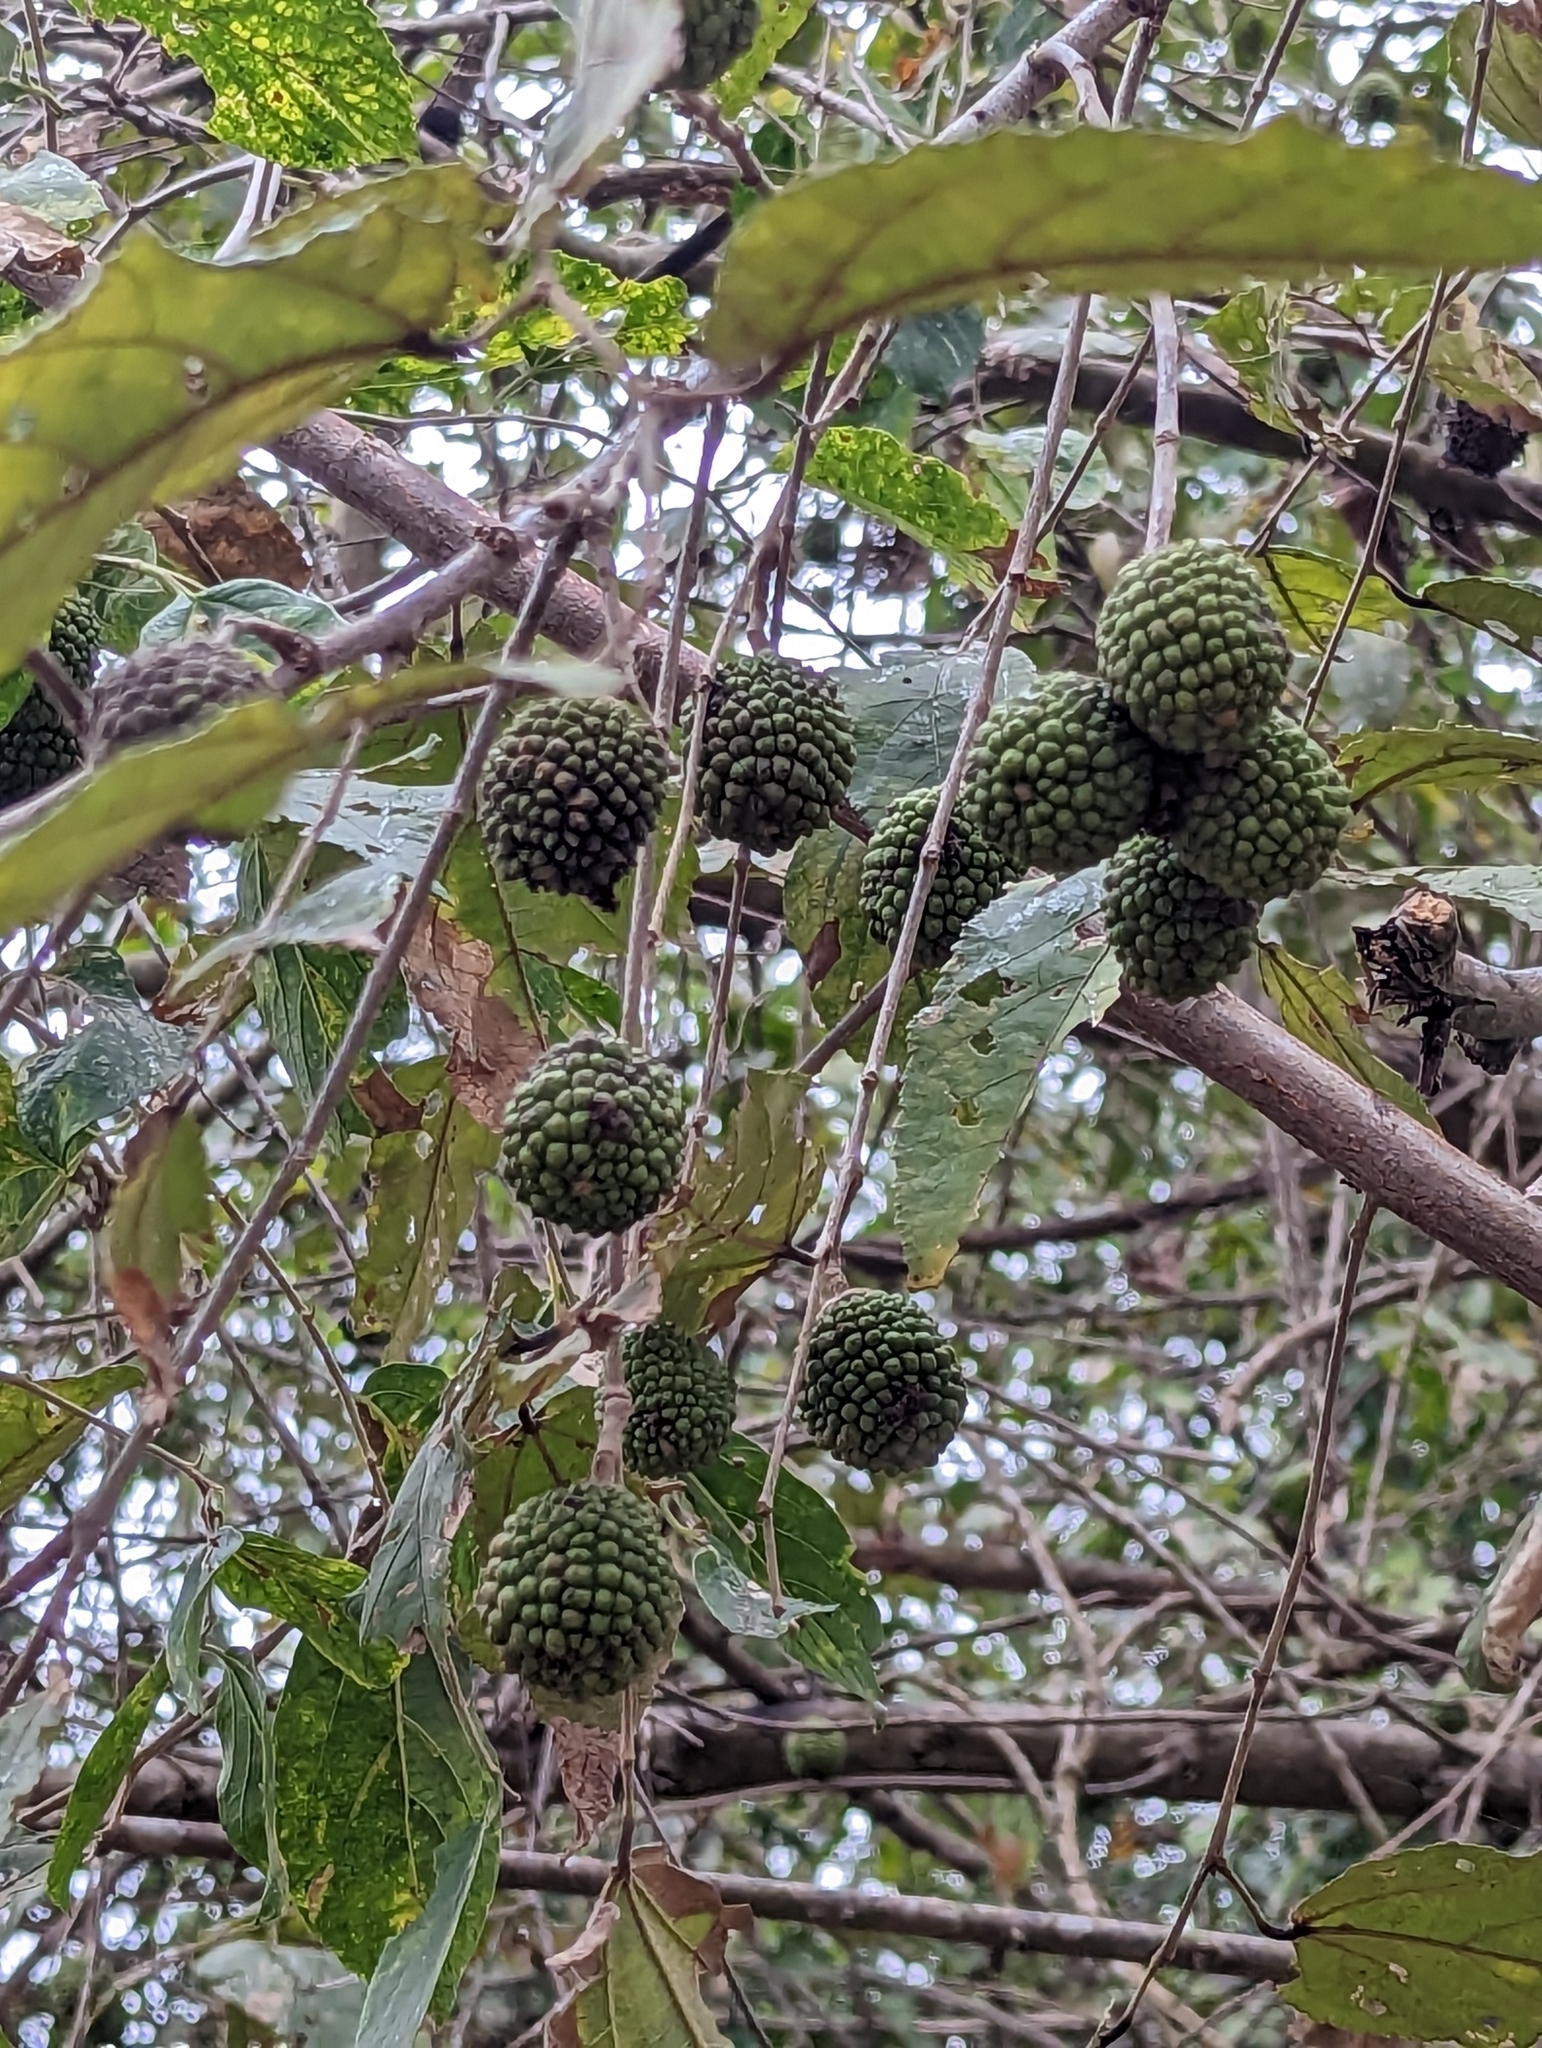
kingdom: Plantae
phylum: Tracheophyta
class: Magnoliopsida
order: Malvales
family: Malvaceae
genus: Guazuma
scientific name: Guazuma ulmifolia
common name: Bastard-cedar
